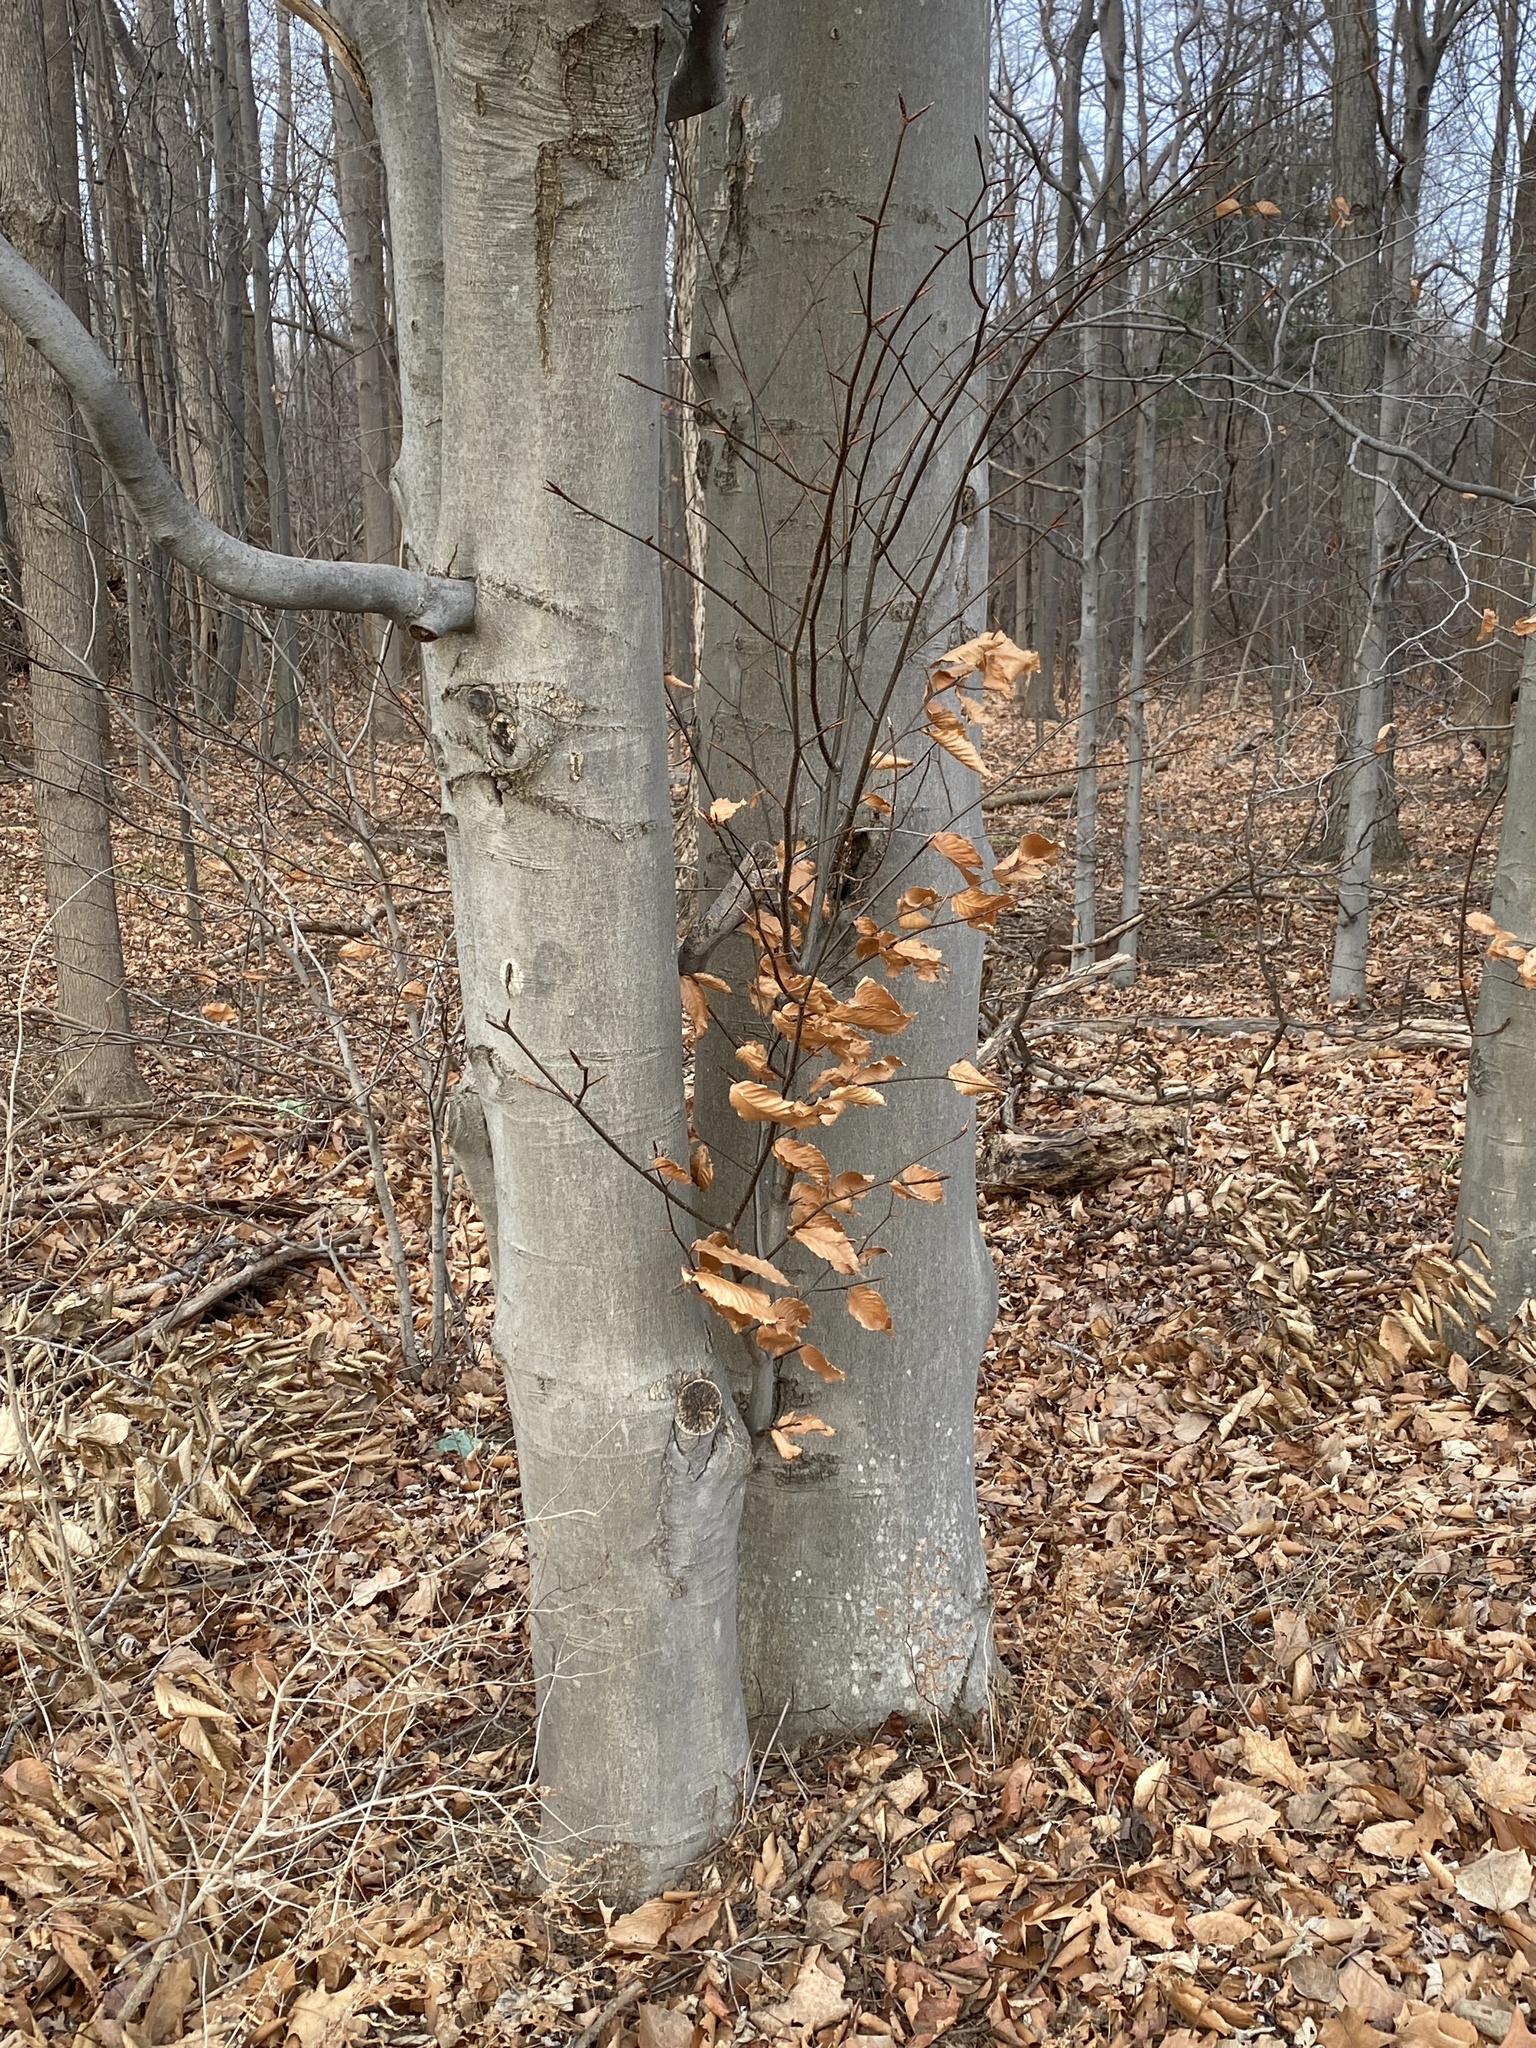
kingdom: Plantae
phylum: Tracheophyta
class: Magnoliopsida
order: Fagales
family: Fagaceae
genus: Fagus
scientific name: Fagus grandifolia
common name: American beech
